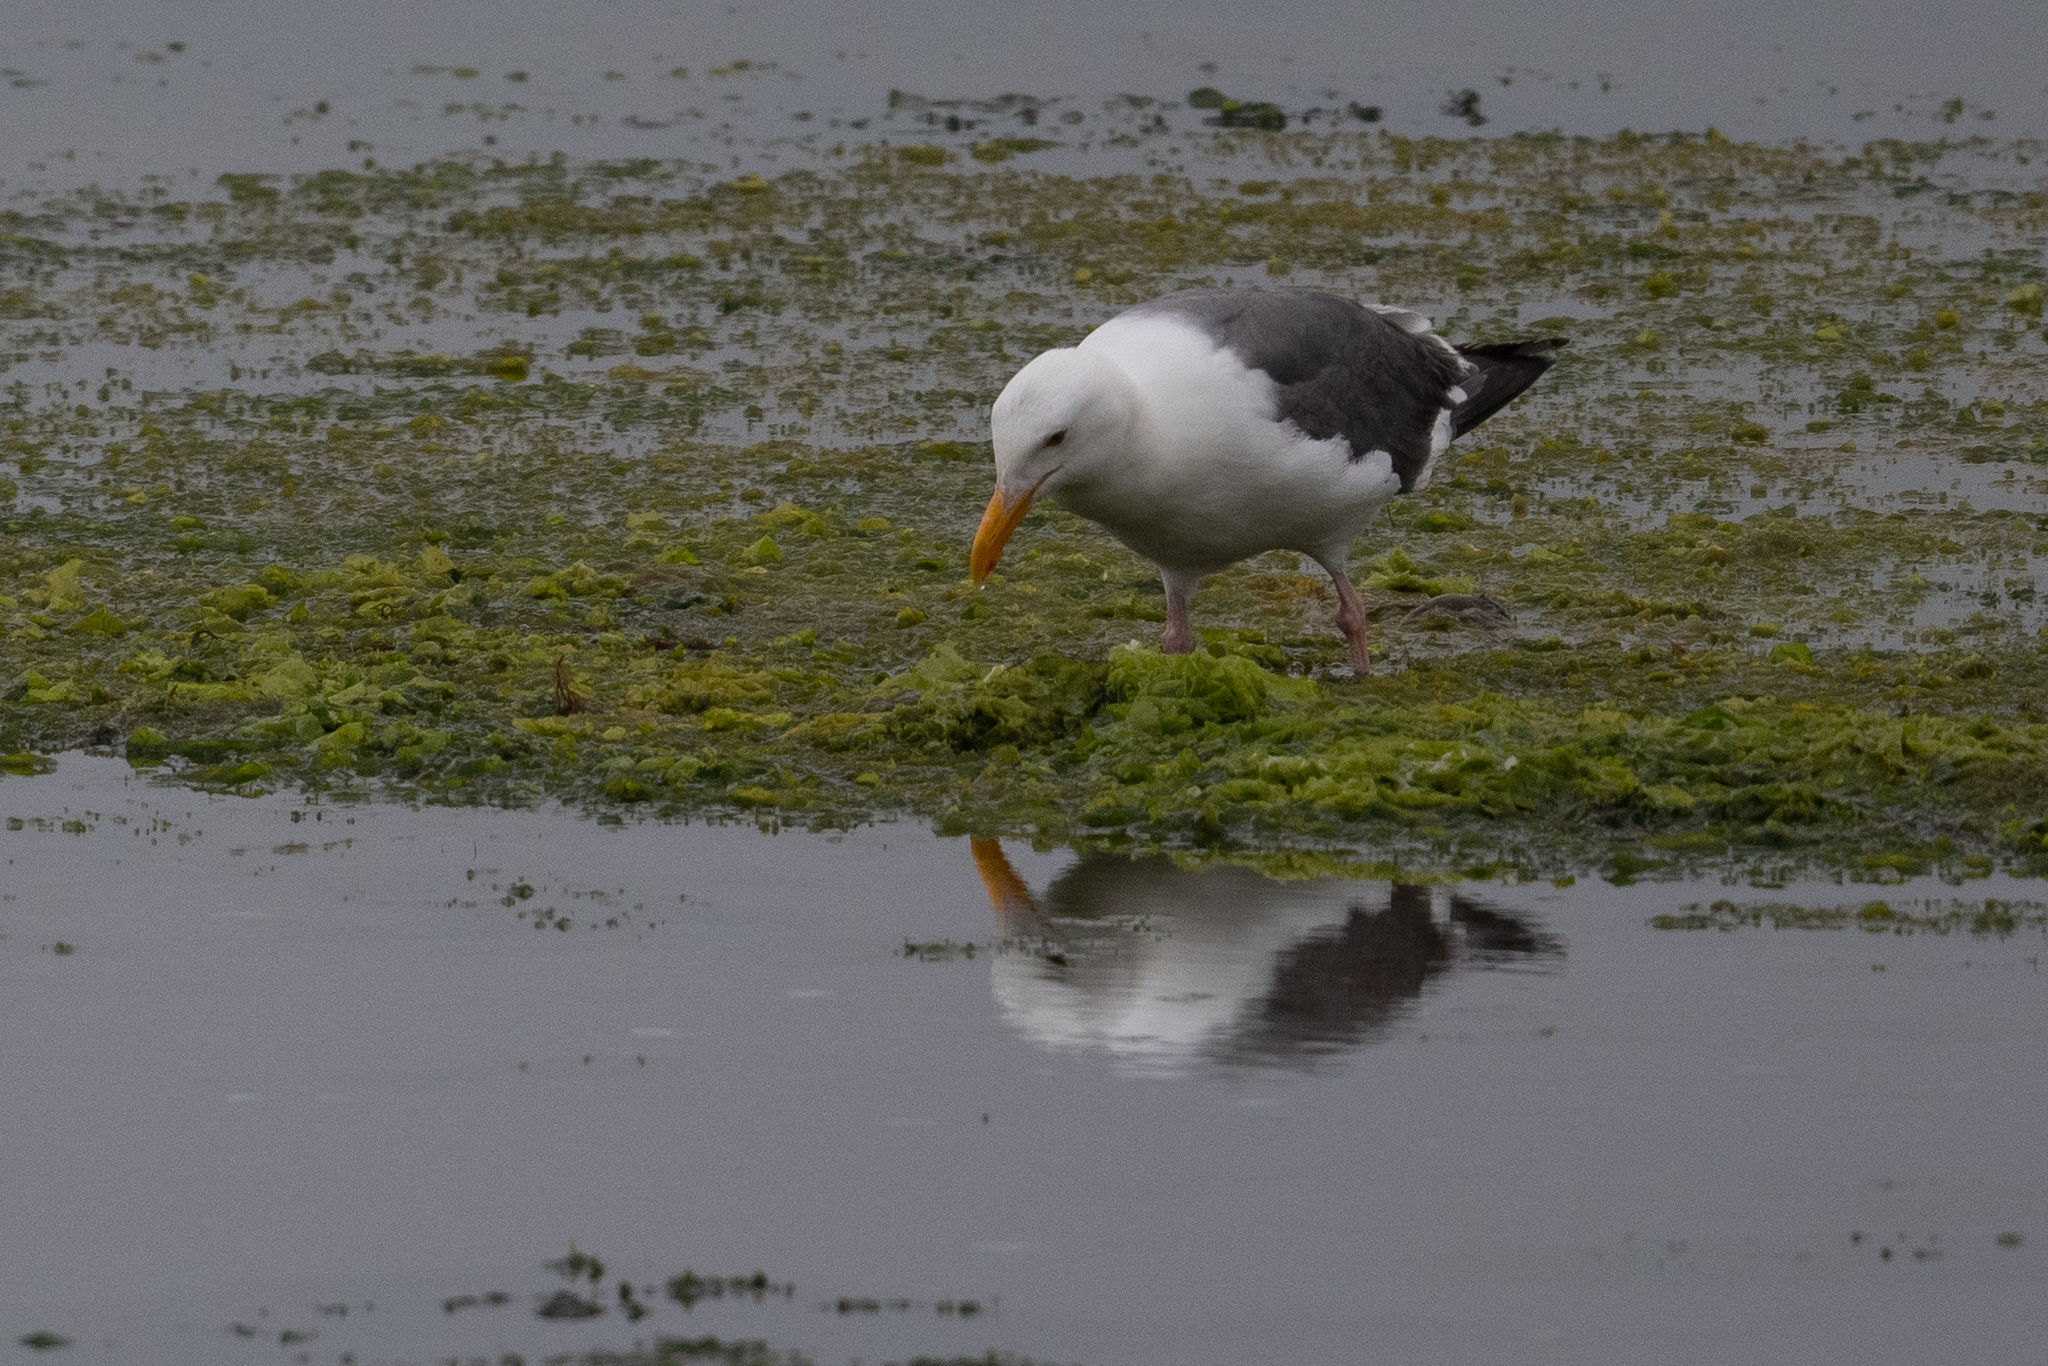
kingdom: Animalia
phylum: Chordata
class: Aves
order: Charadriiformes
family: Laridae
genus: Larus
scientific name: Larus occidentalis
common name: Western gull
